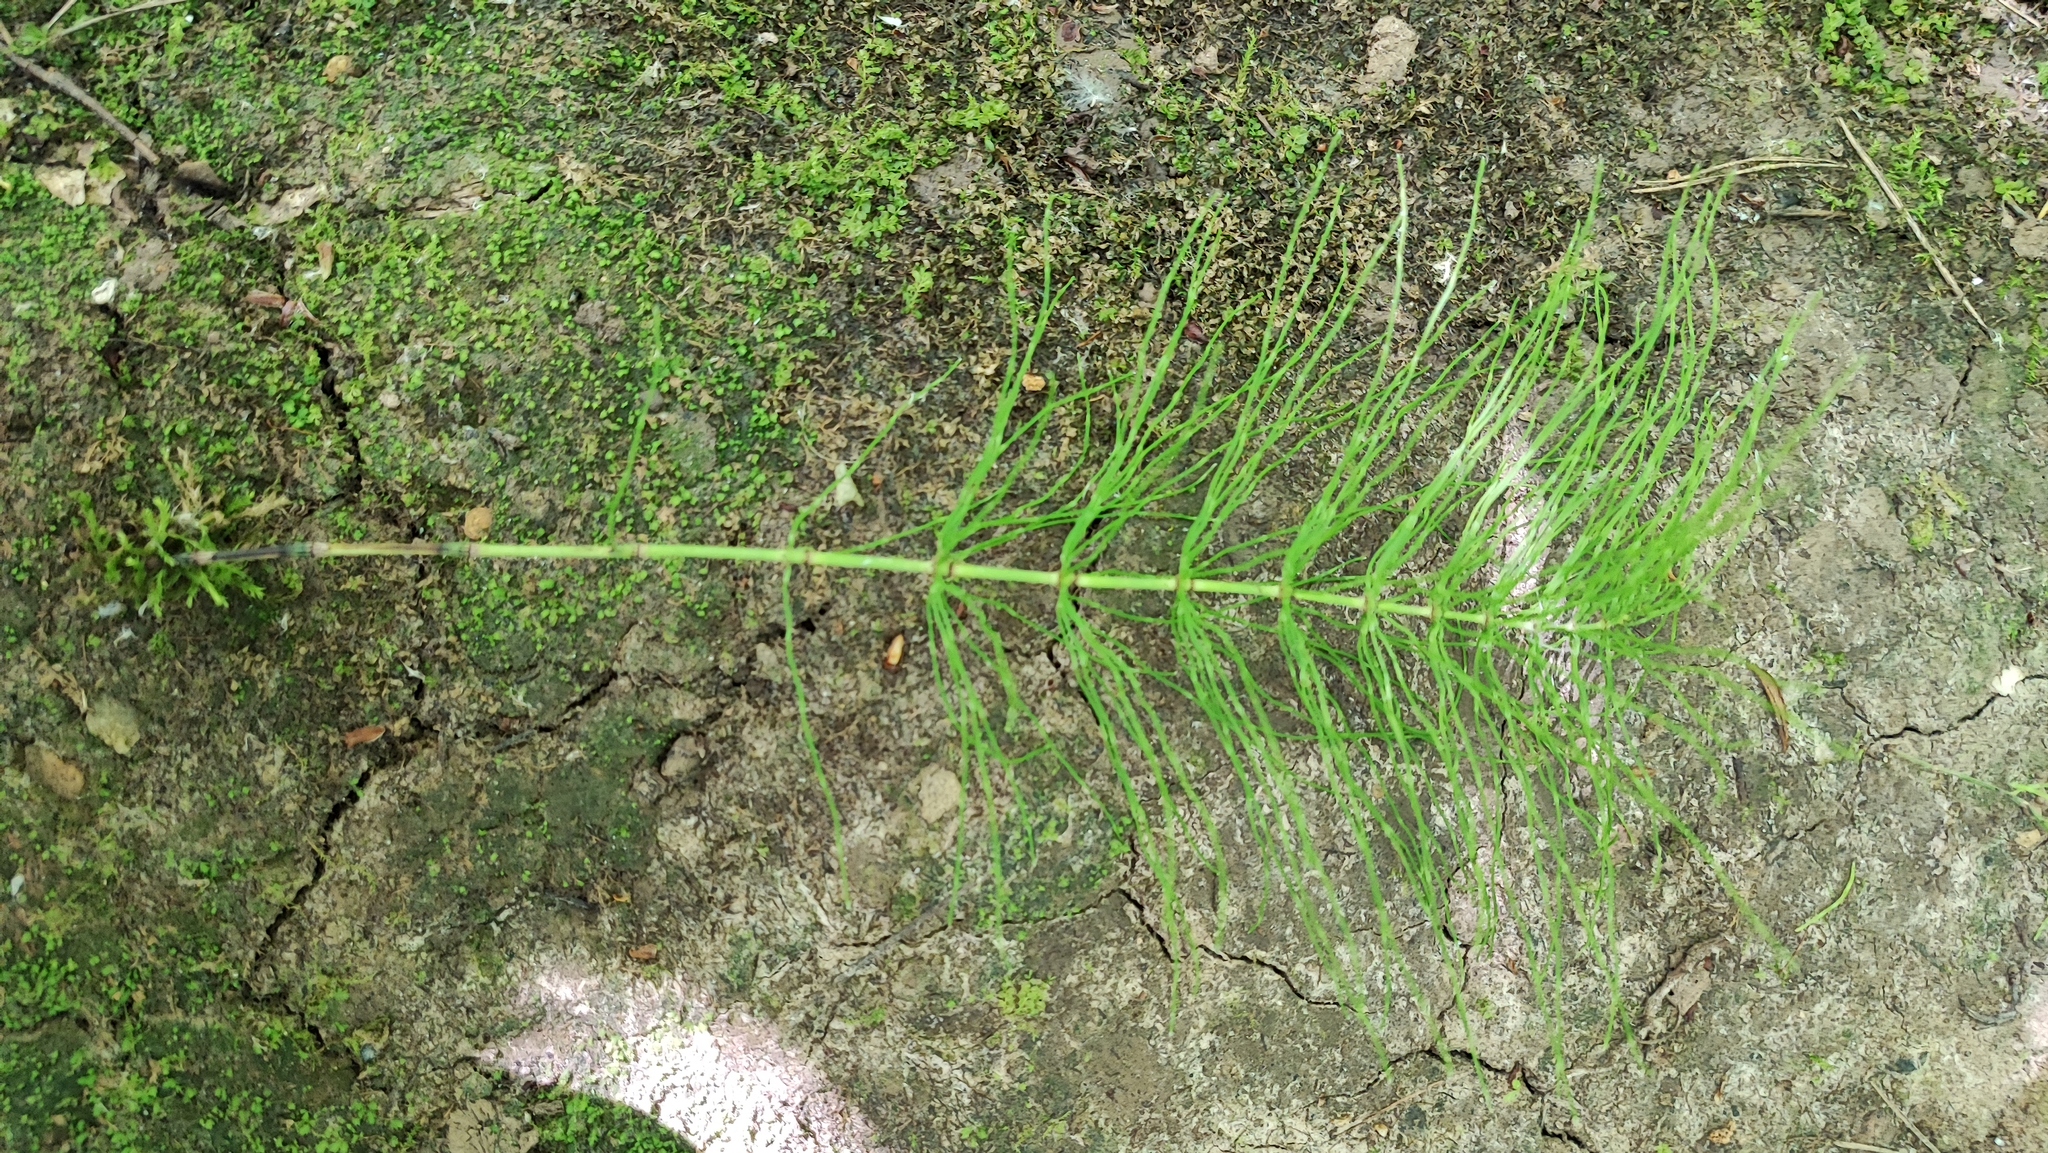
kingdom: Plantae
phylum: Tracheophyta
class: Polypodiopsida
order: Equisetales
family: Equisetaceae
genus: Equisetum
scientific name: Equisetum pratense
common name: Meadow horsetail
